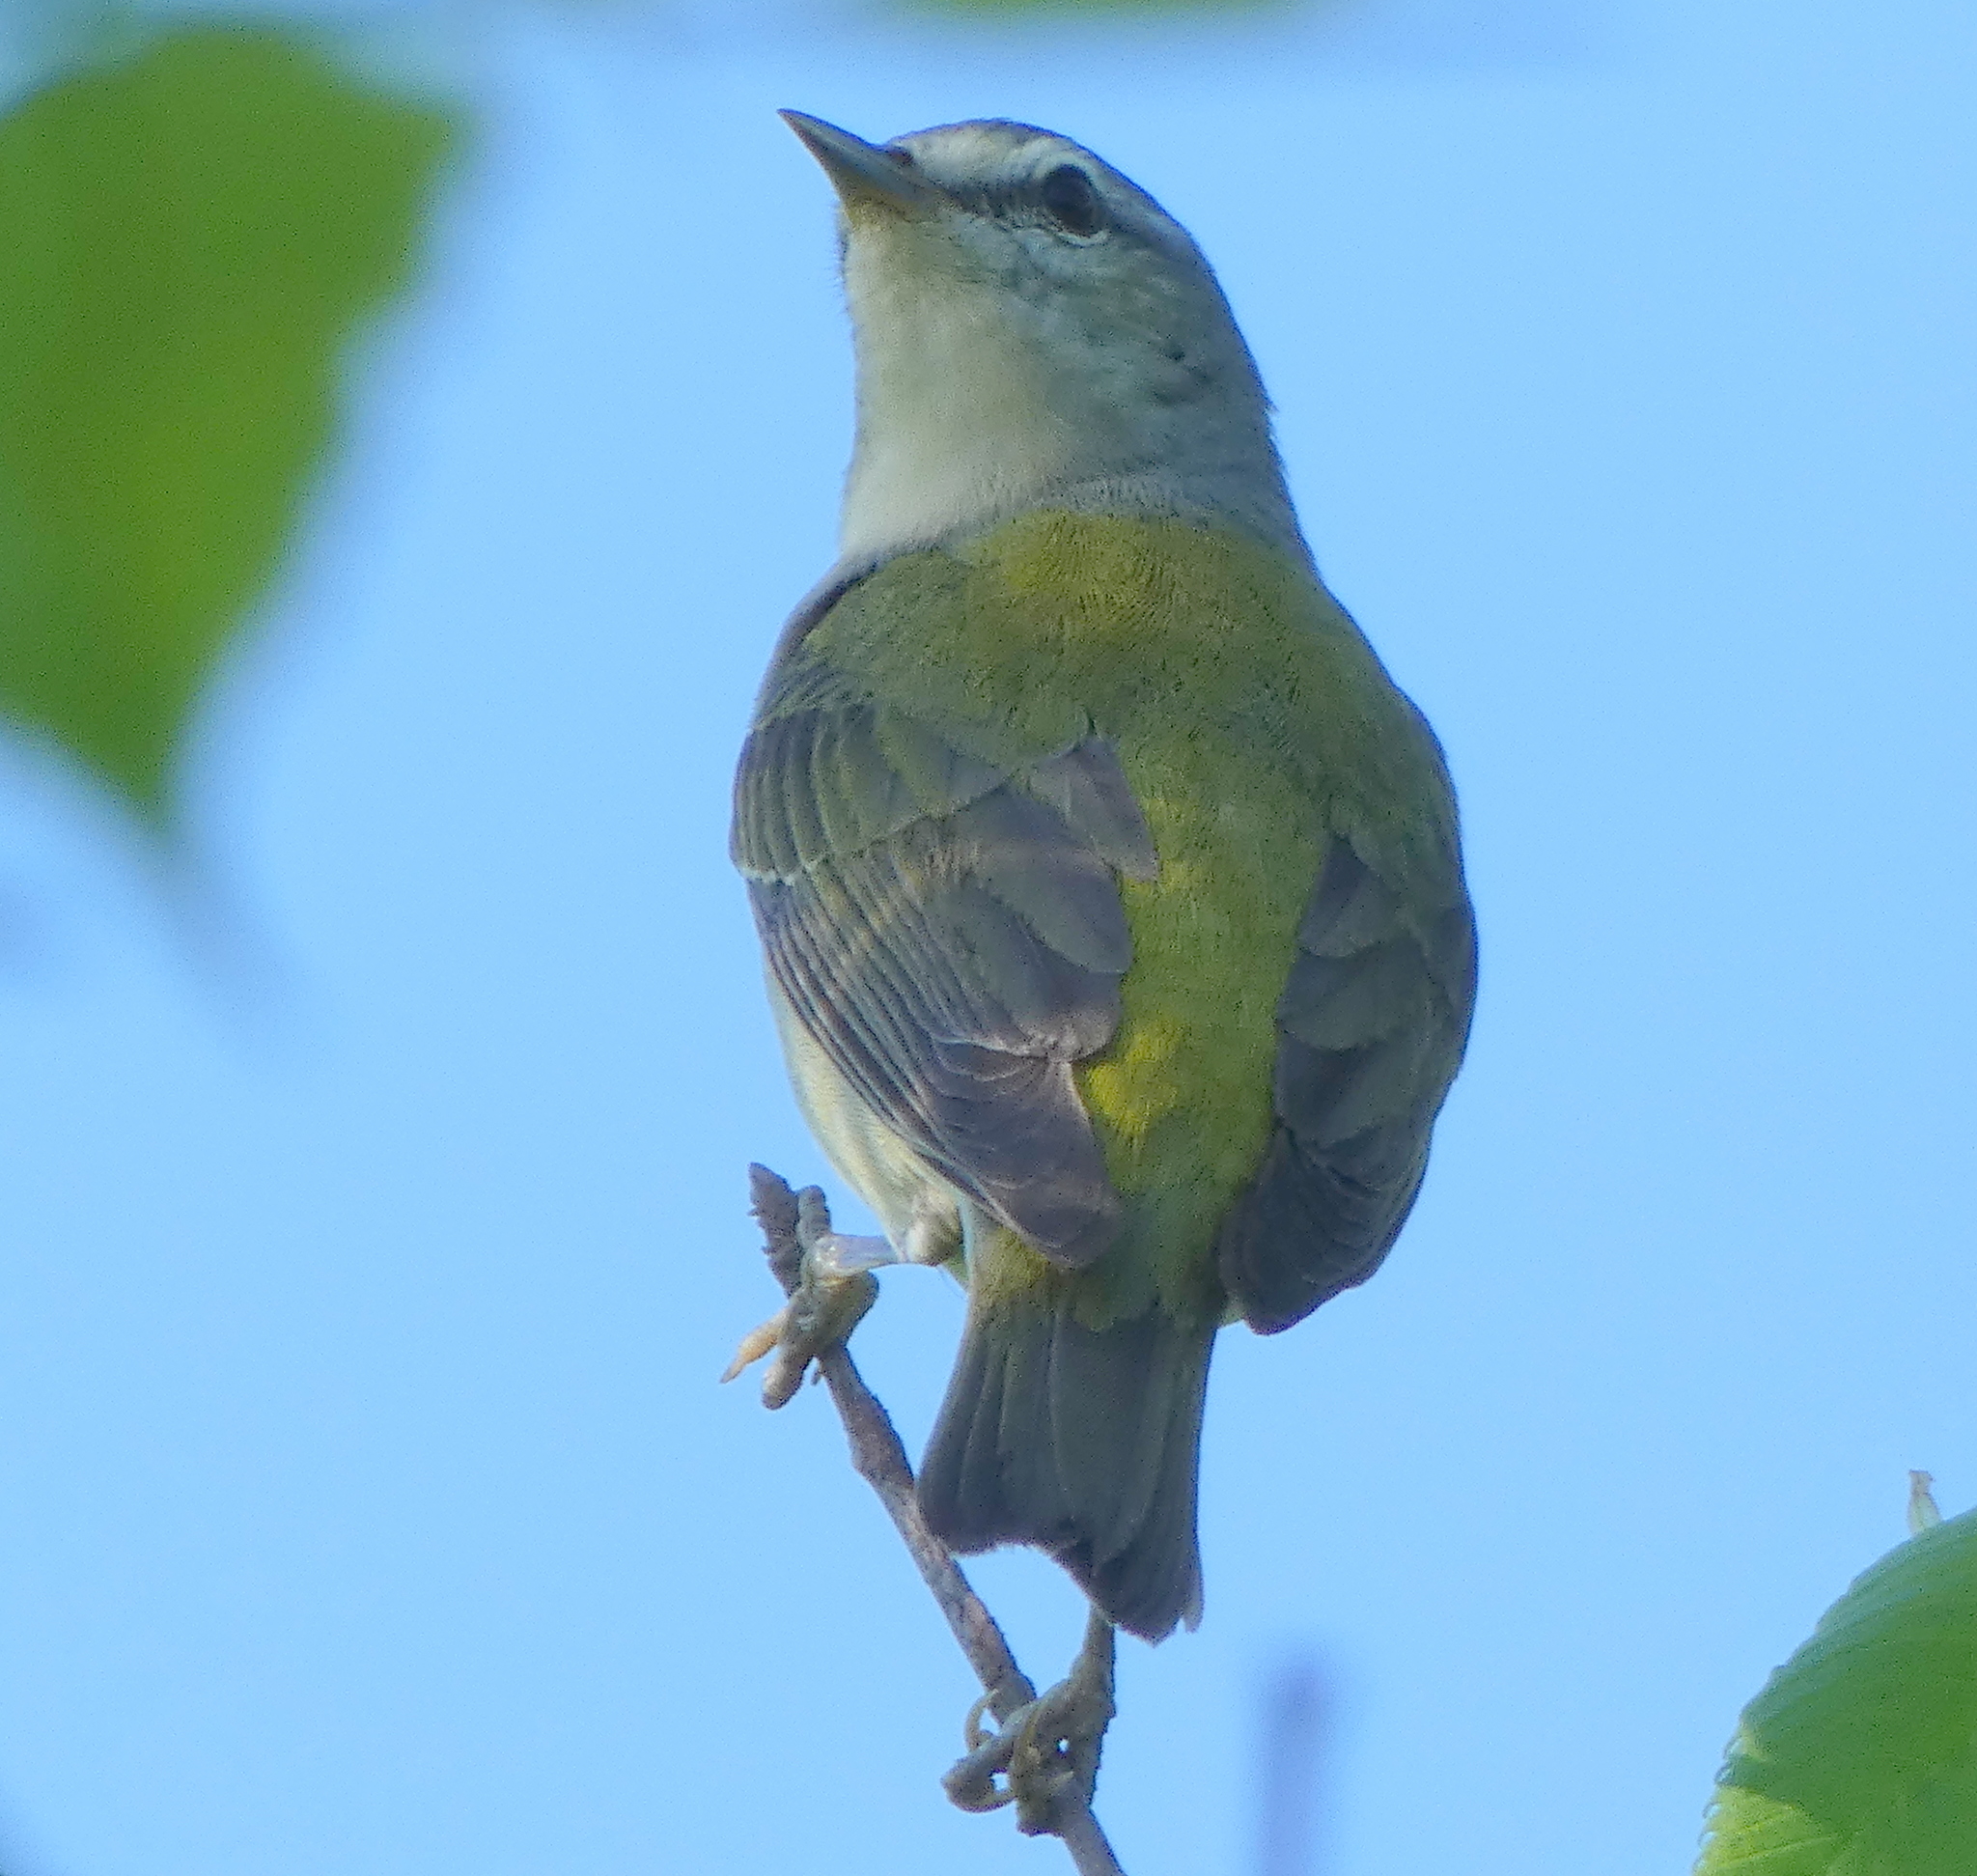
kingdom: Animalia
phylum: Chordata
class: Aves
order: Passeriformes
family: Parulidae
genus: Leiothlypis
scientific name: Leiothlypis peregrina
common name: Tennessee warbler
